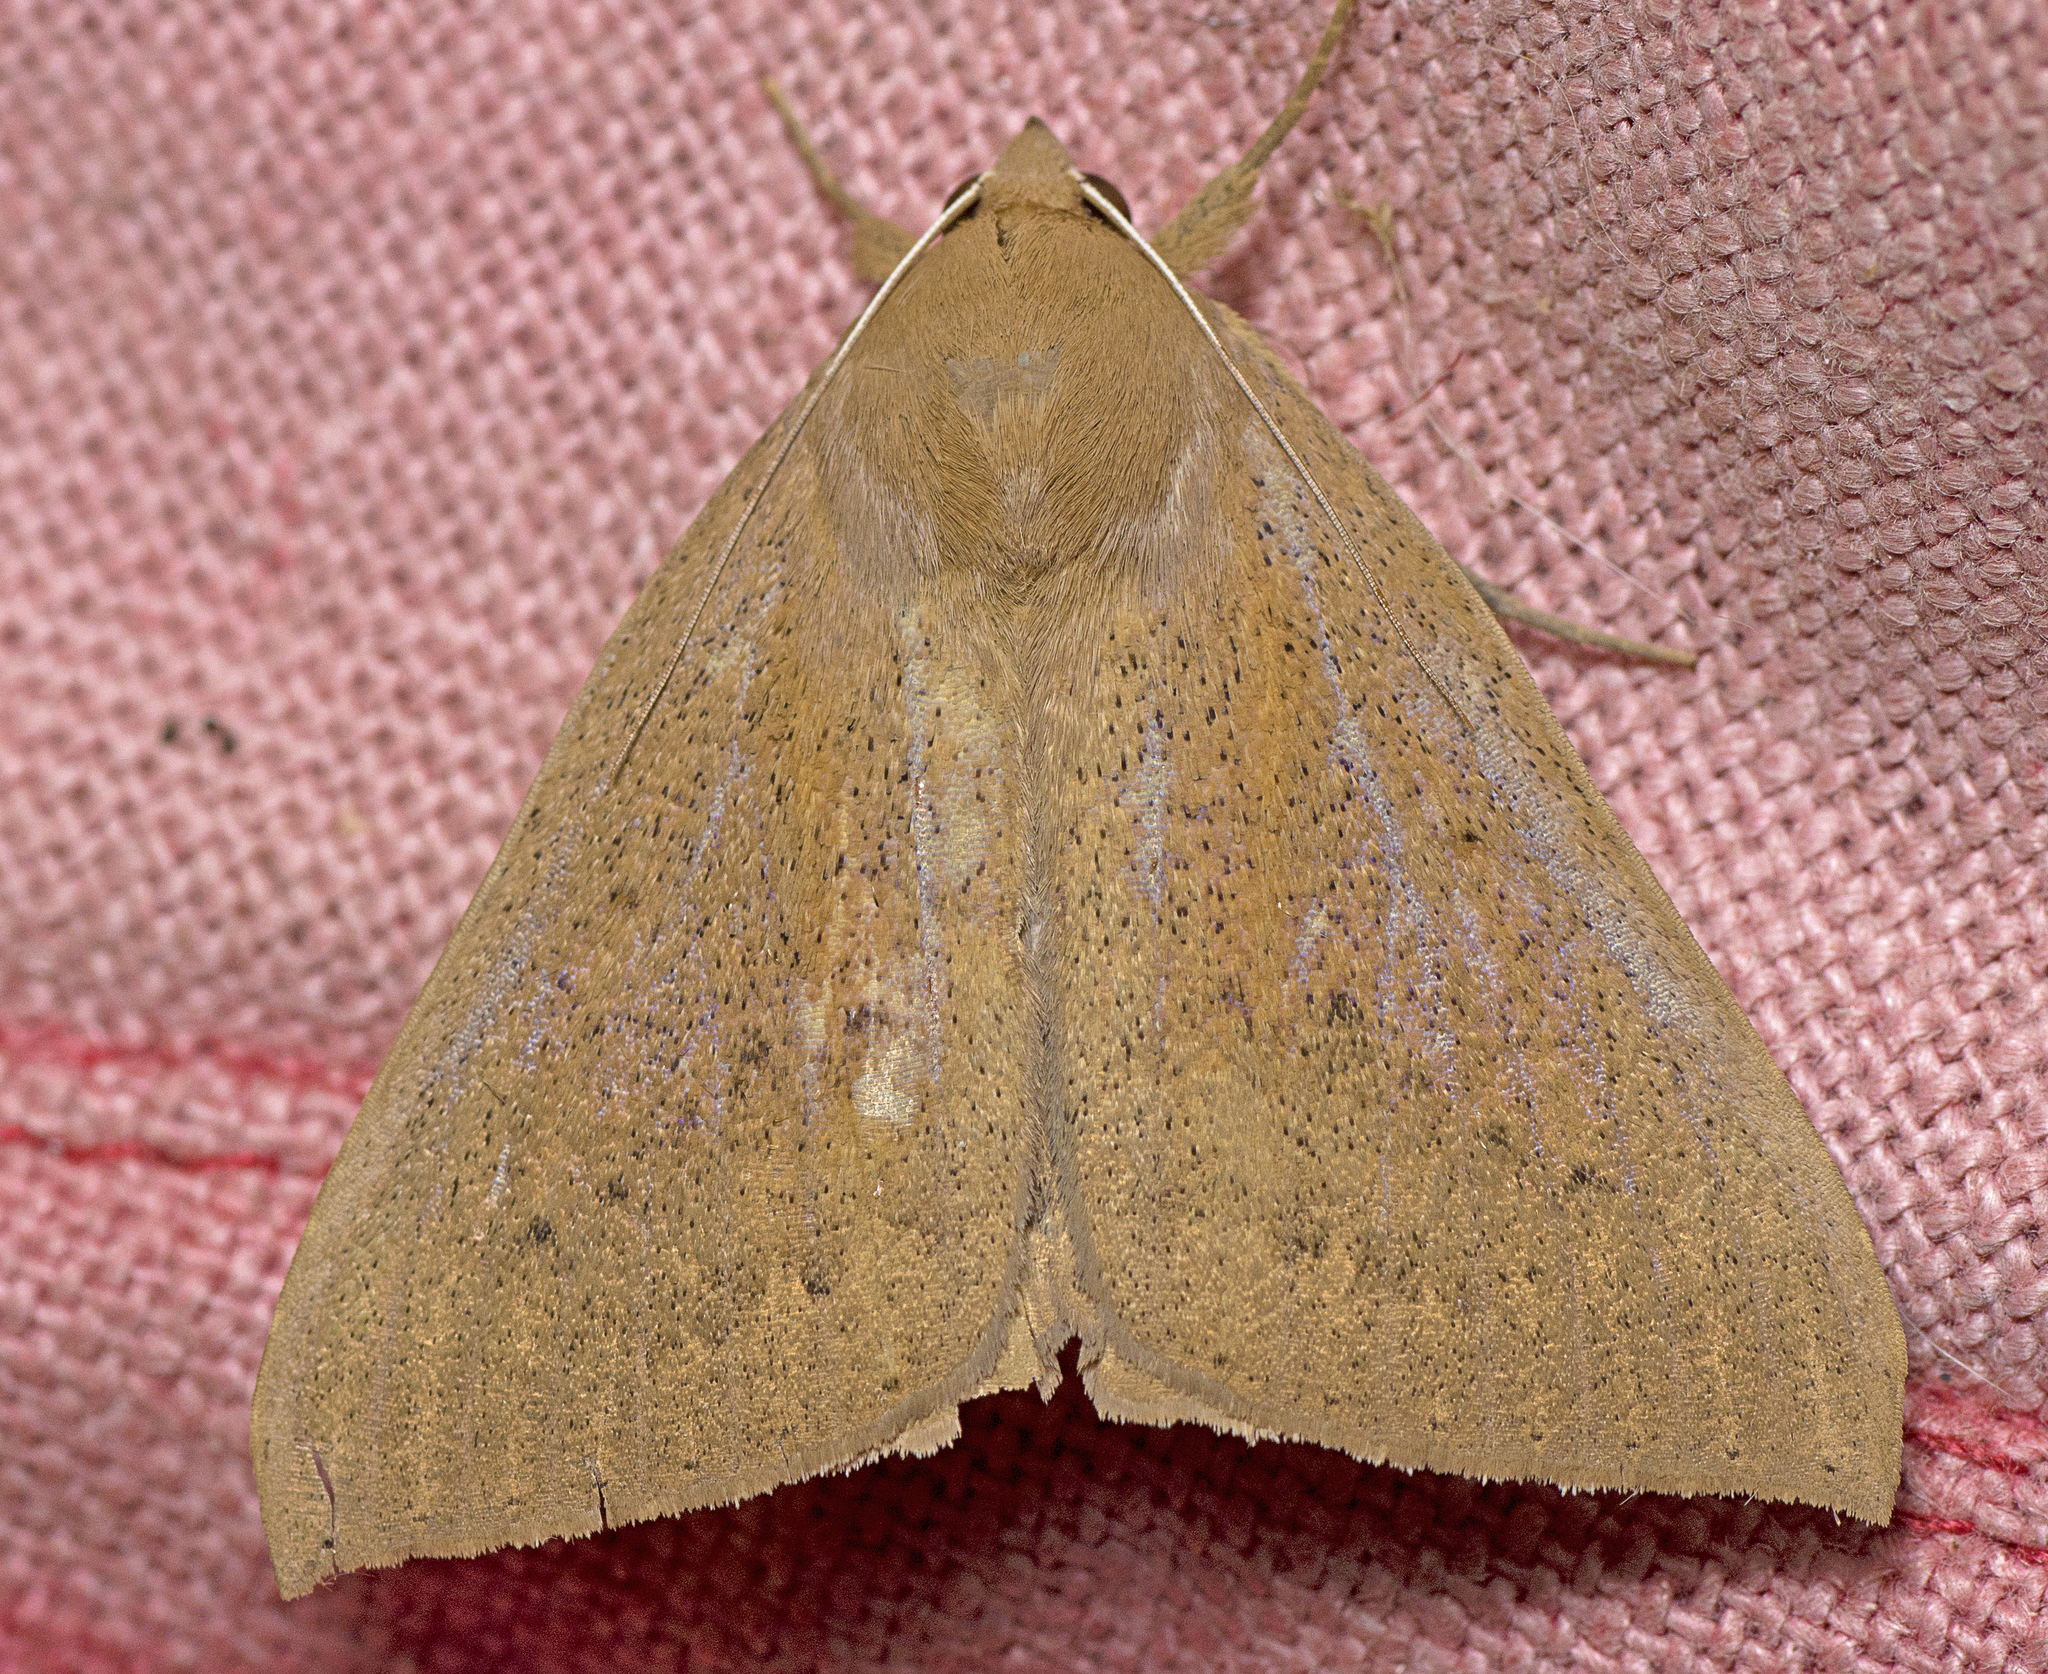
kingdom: Animalia
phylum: Arthropoda
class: Insecta
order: Lepidoptera
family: Erebidae
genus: Ophisma
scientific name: Ophisma gravata
